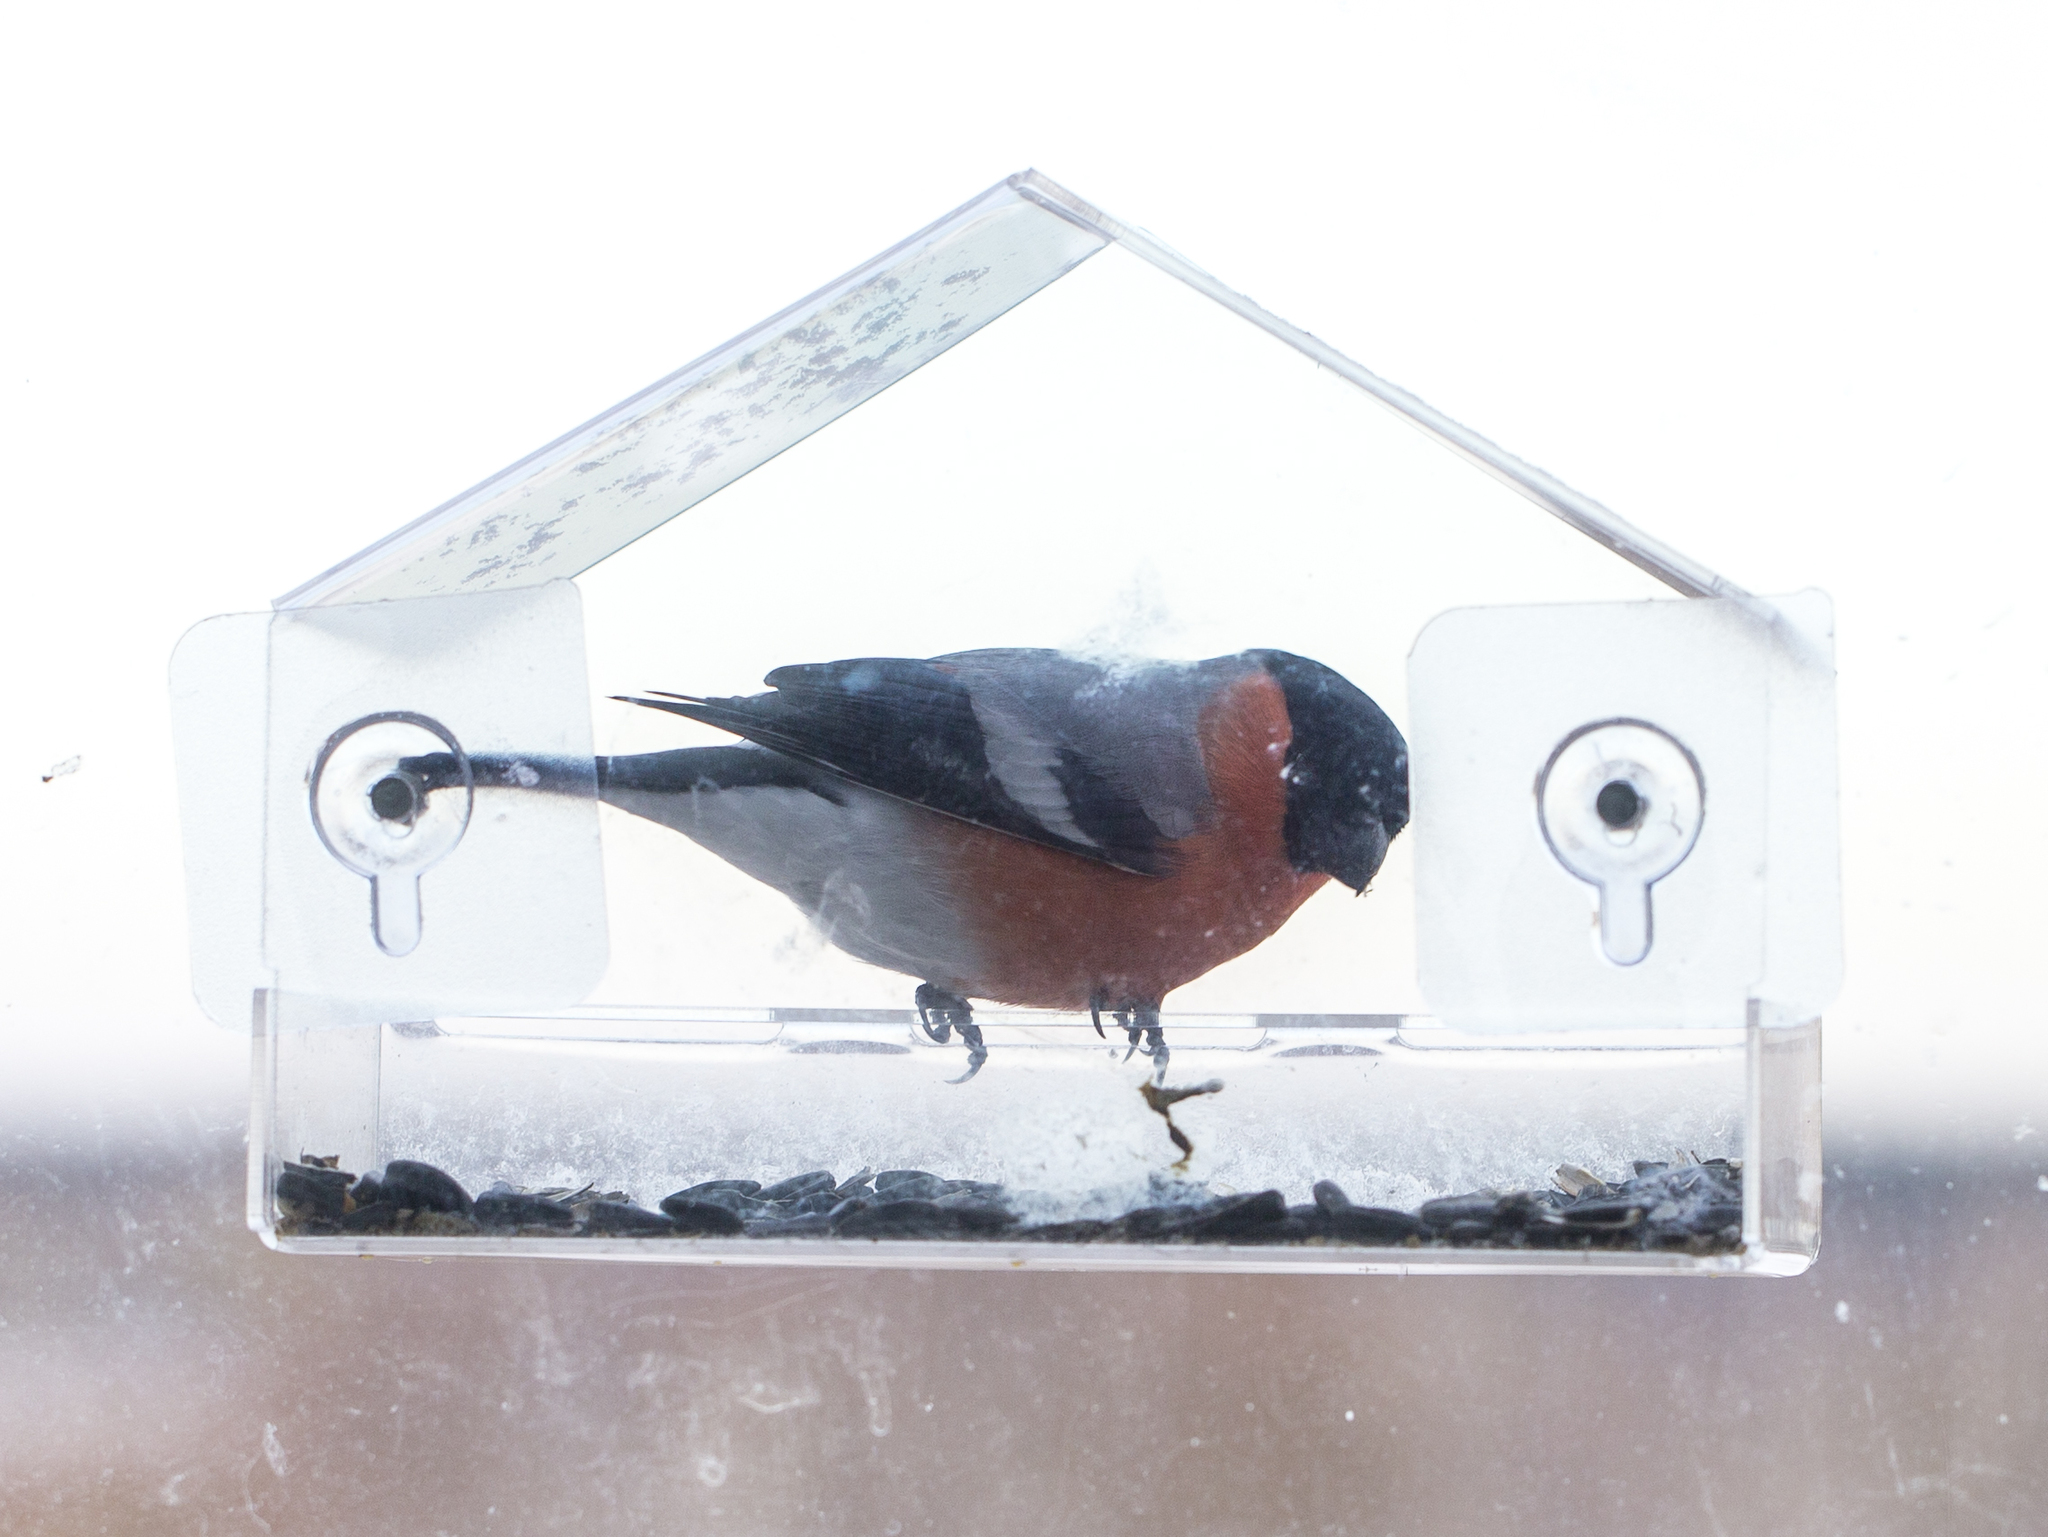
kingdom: Animalia
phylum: Chordata
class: Aves
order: Passeriformes
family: Fringillidae
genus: Pyrrhula
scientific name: Pyrrhula pyrrhula
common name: Eurasian bullfinch
